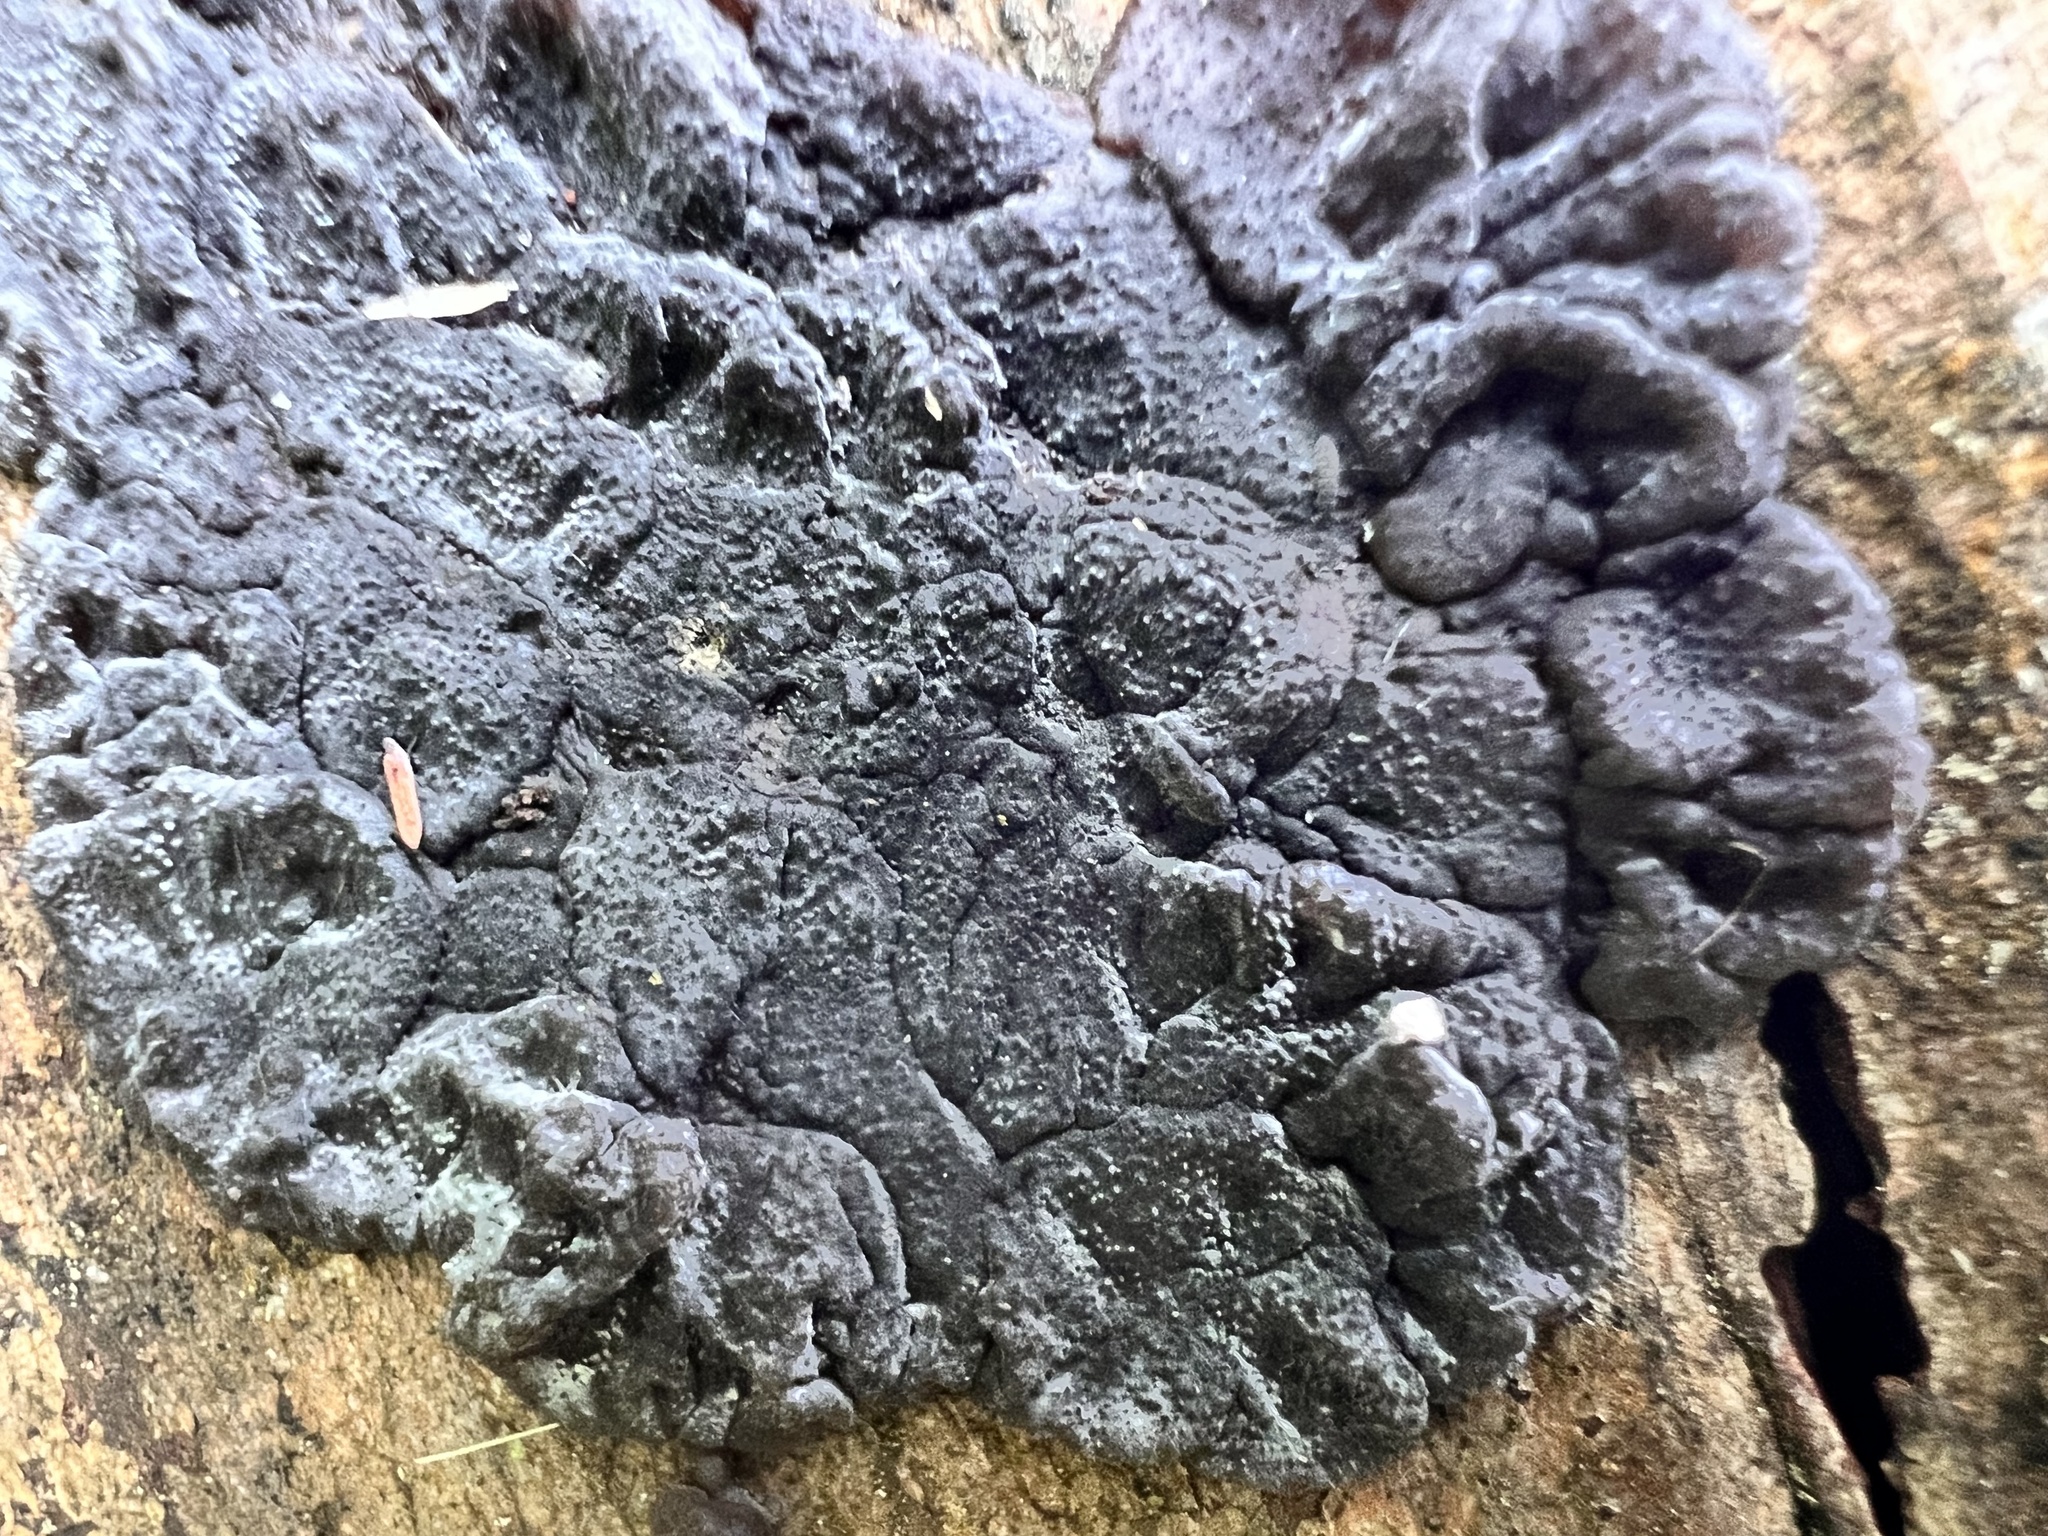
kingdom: Fungi
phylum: Basidiomycota
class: Agaricomycetes
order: Auriculariales
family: Auriculariaceae
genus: Tremellochaete
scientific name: Tremellochaete
